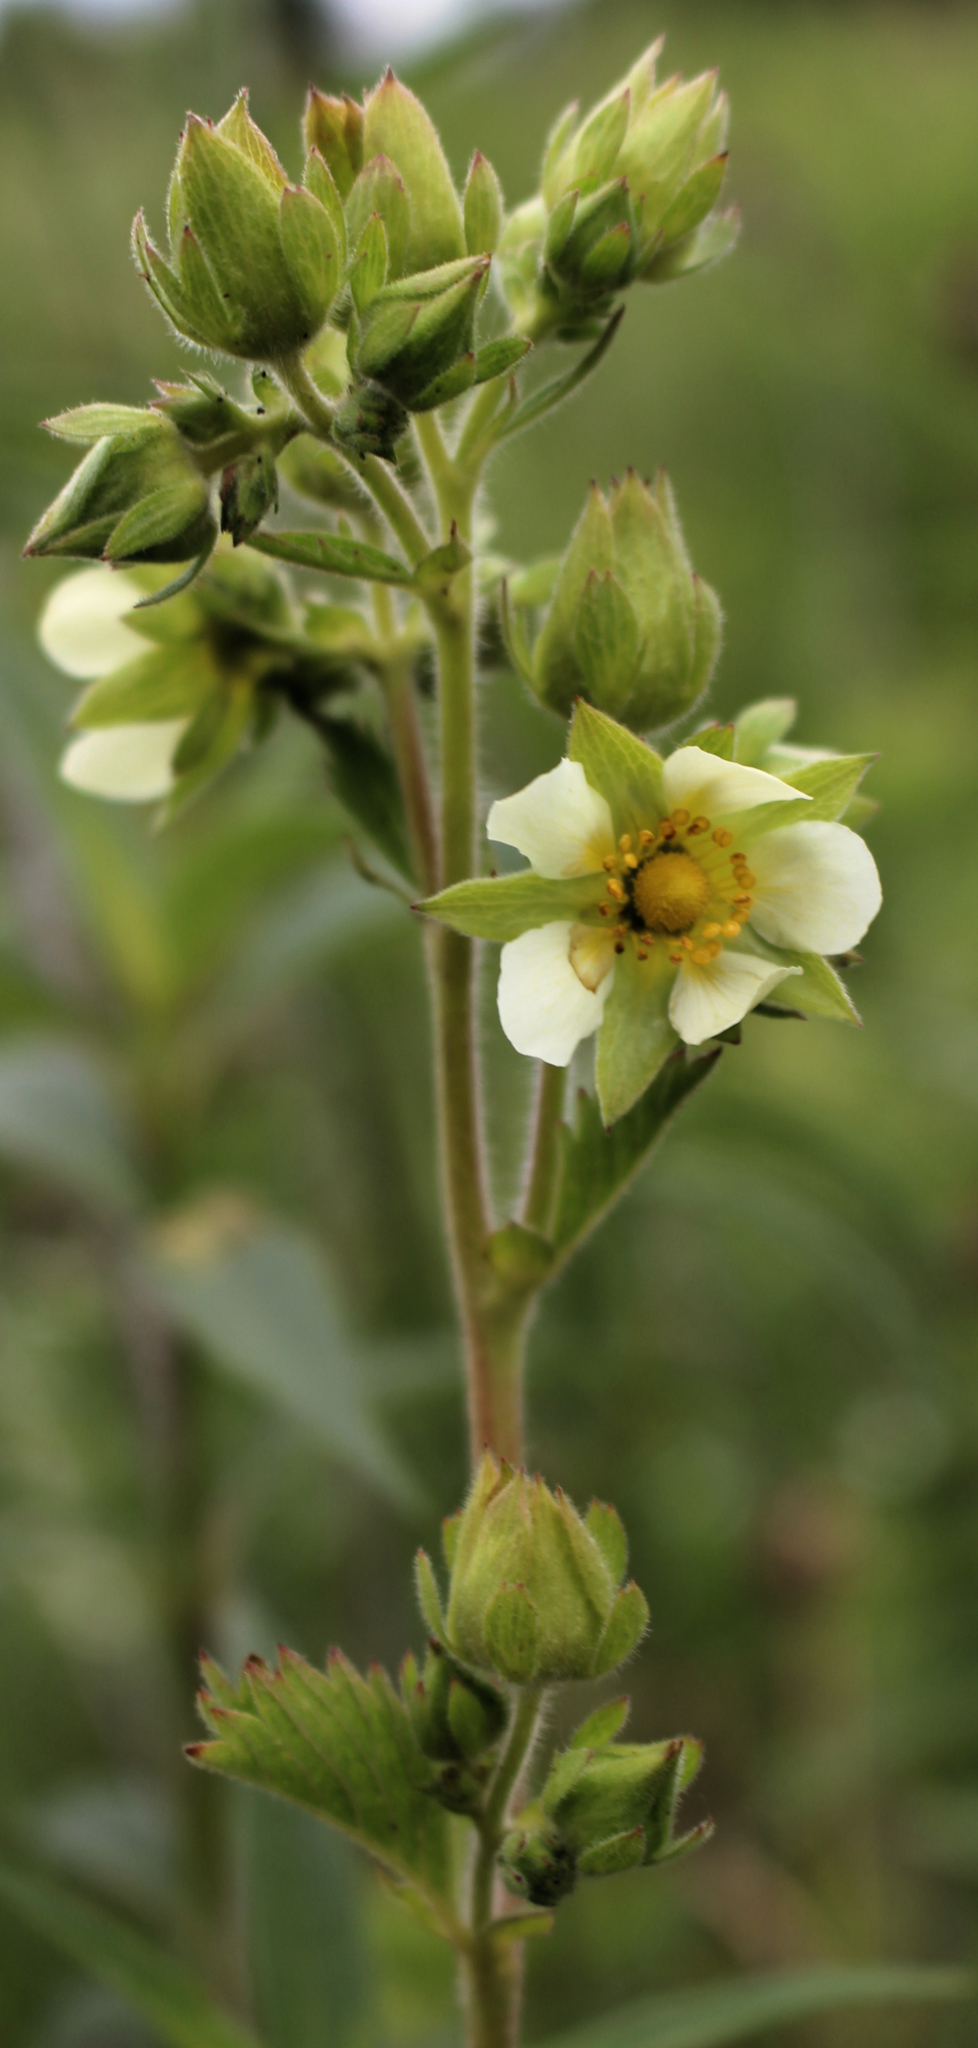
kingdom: Plantae
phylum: Tracheophyta
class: Magnoliopsida
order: Rosales
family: Rosaceae
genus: Drymocallis
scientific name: Drymocallis arguta
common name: Tall cinquefoil
